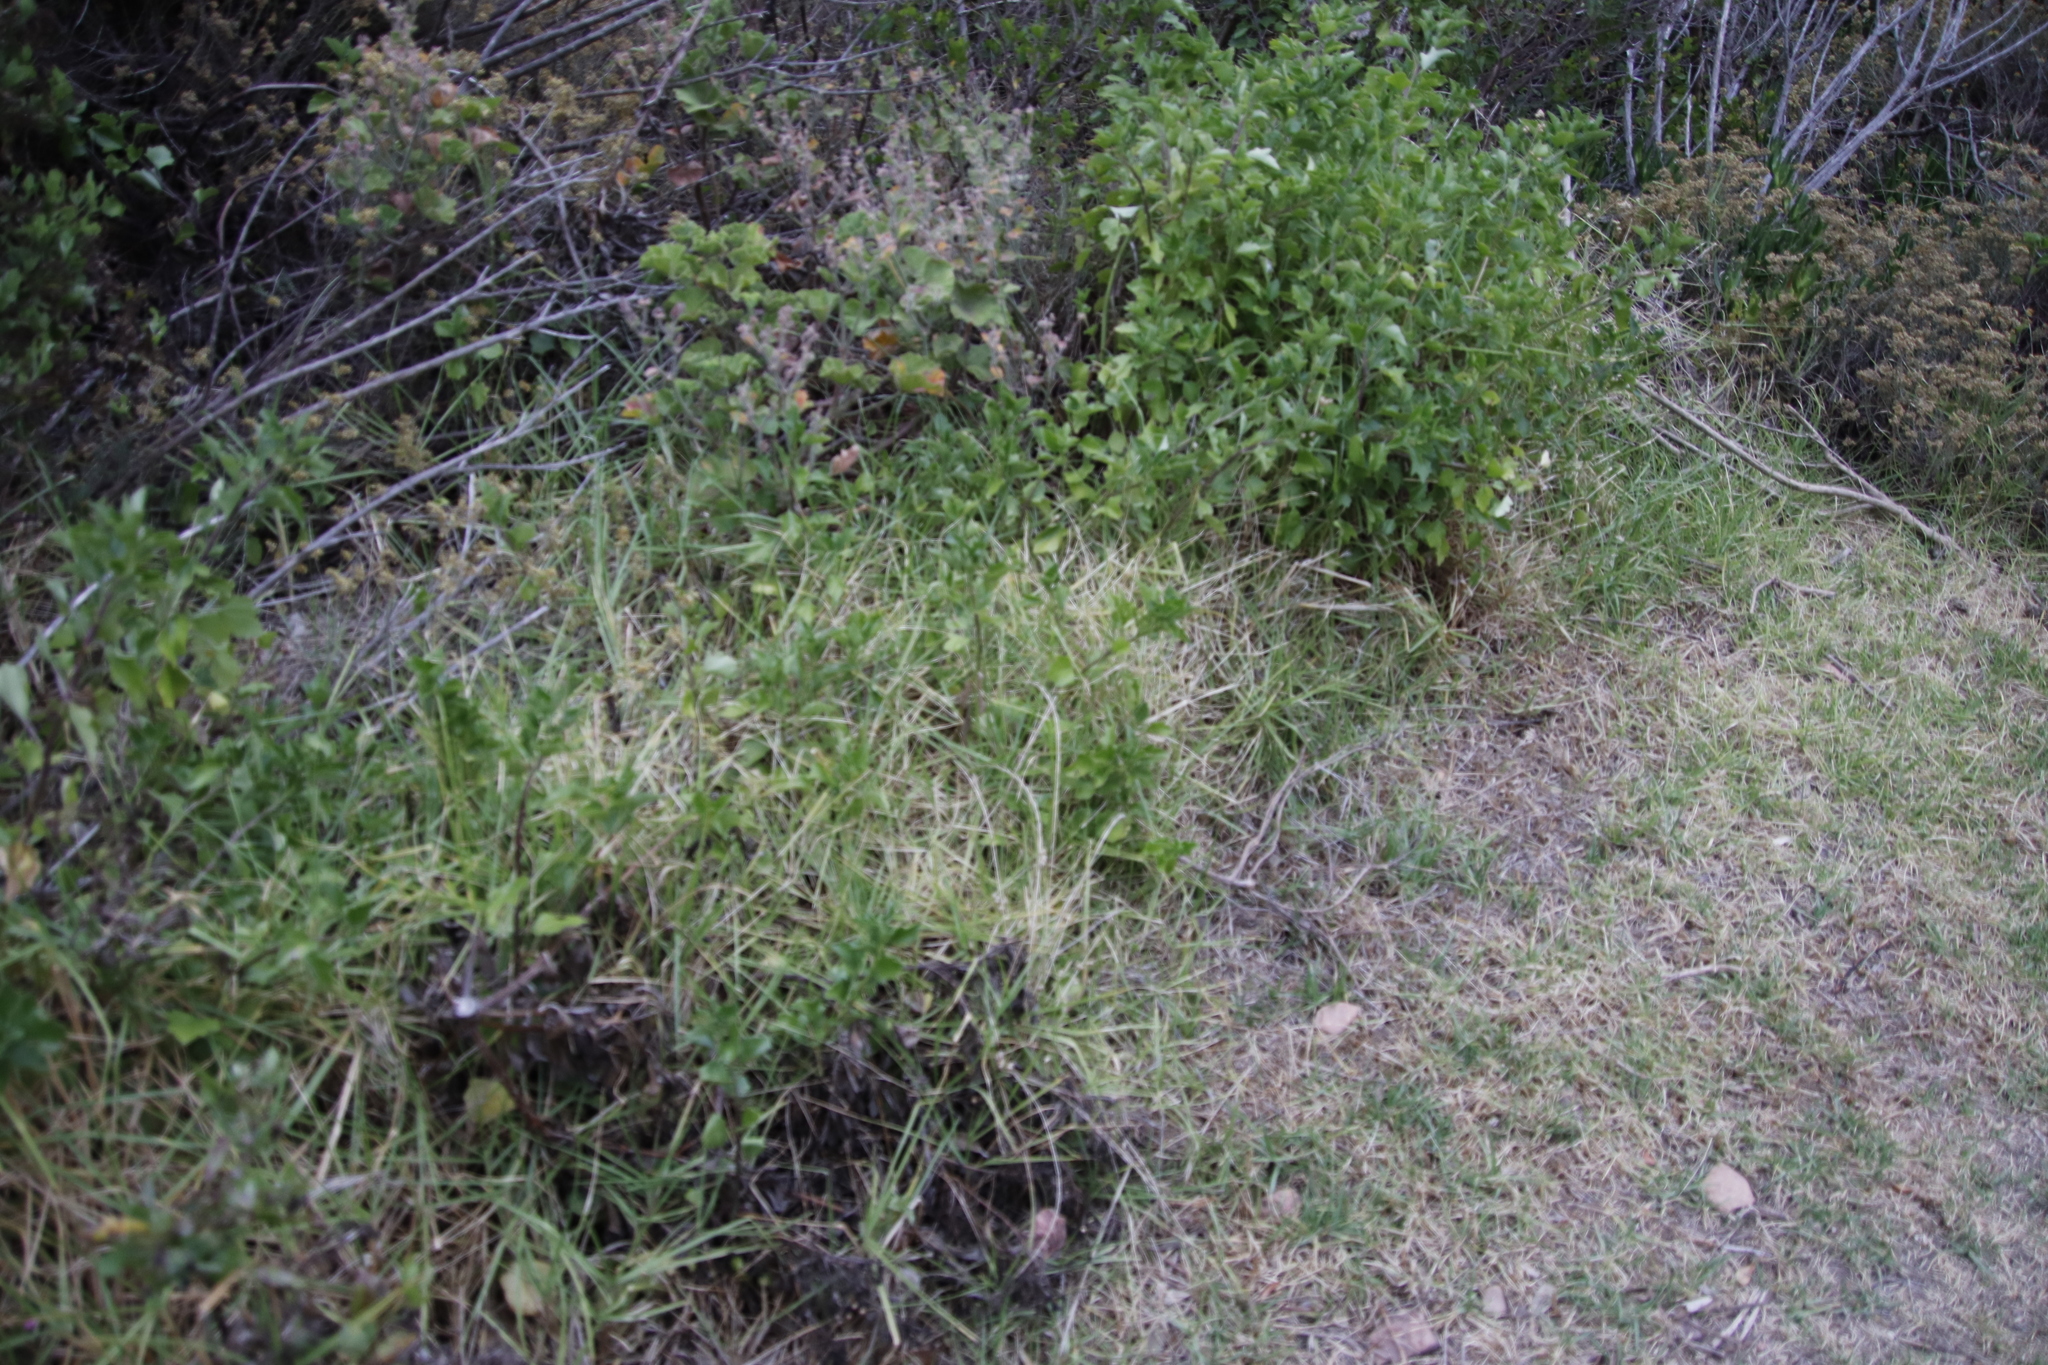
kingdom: Plantae
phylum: Tracheophyta
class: Liliopsida
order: Poales
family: Poaceae
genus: Cenchrus
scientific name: Cenchrus clandestinus
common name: Kikuyugrass
